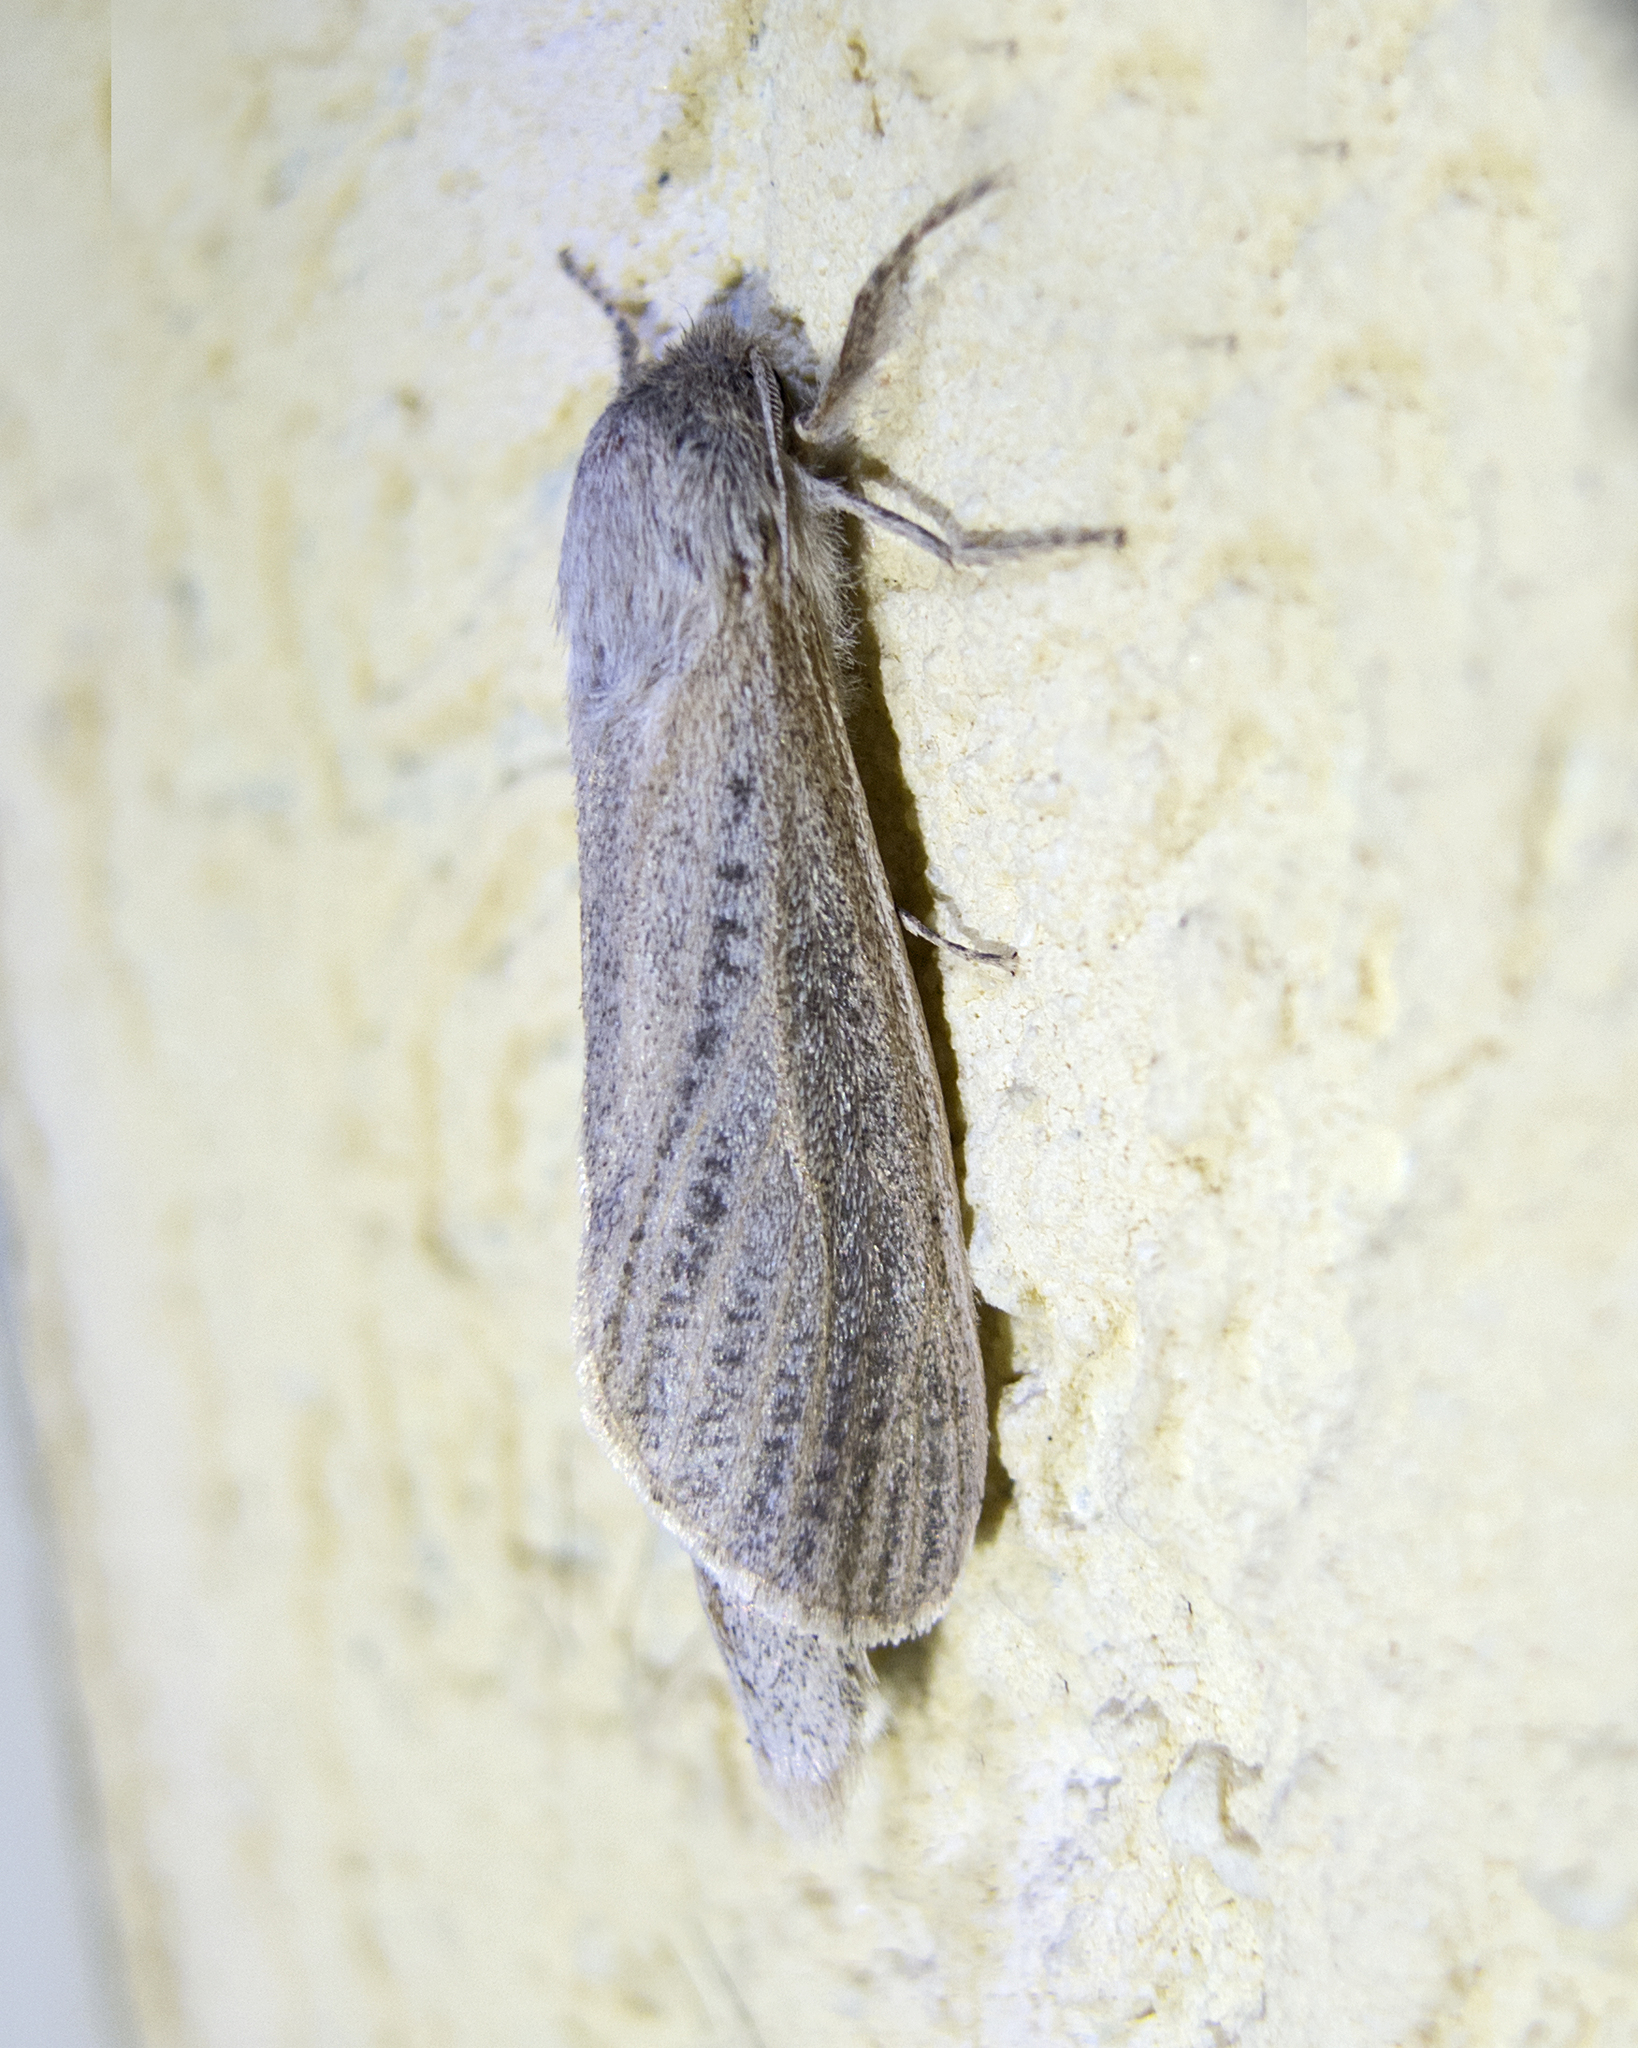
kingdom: Animalia
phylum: Arthropoda
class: Insecta
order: Lepidoptera
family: Cossidae
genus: Phragmataecia
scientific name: Phragmataecia castaneae
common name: Reed leopard
